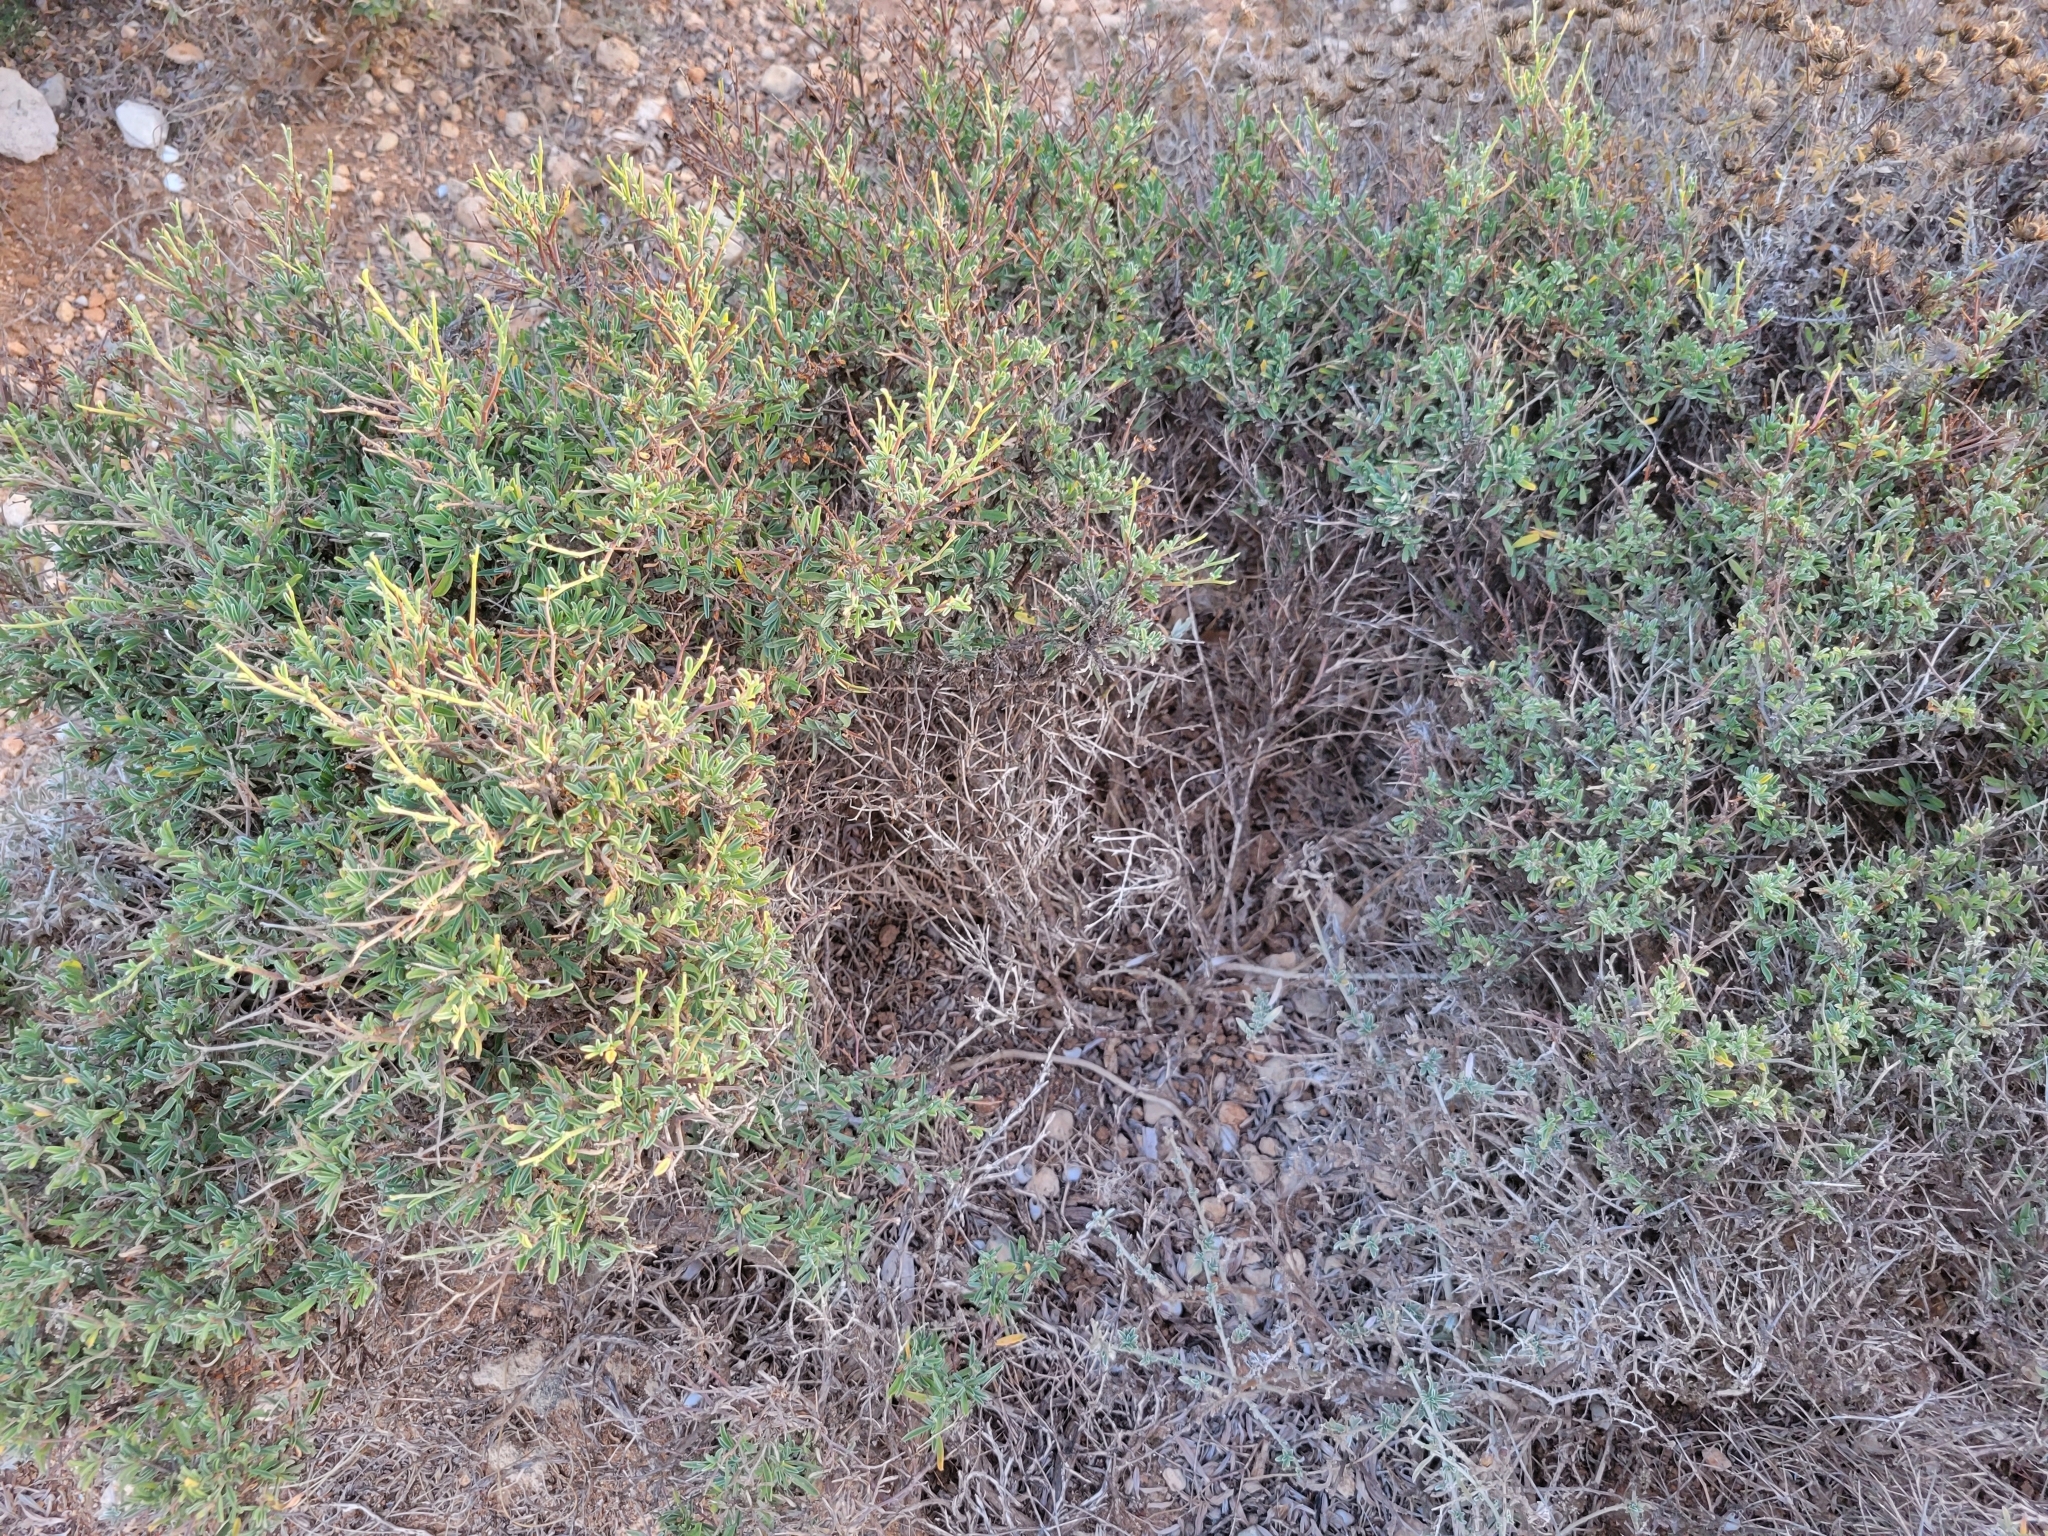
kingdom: Plantae
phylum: Tracheophyta
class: Magnoliopsida
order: Fabales
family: Fabaceae
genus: Anthyllis
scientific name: Anthyllis hermanniae
